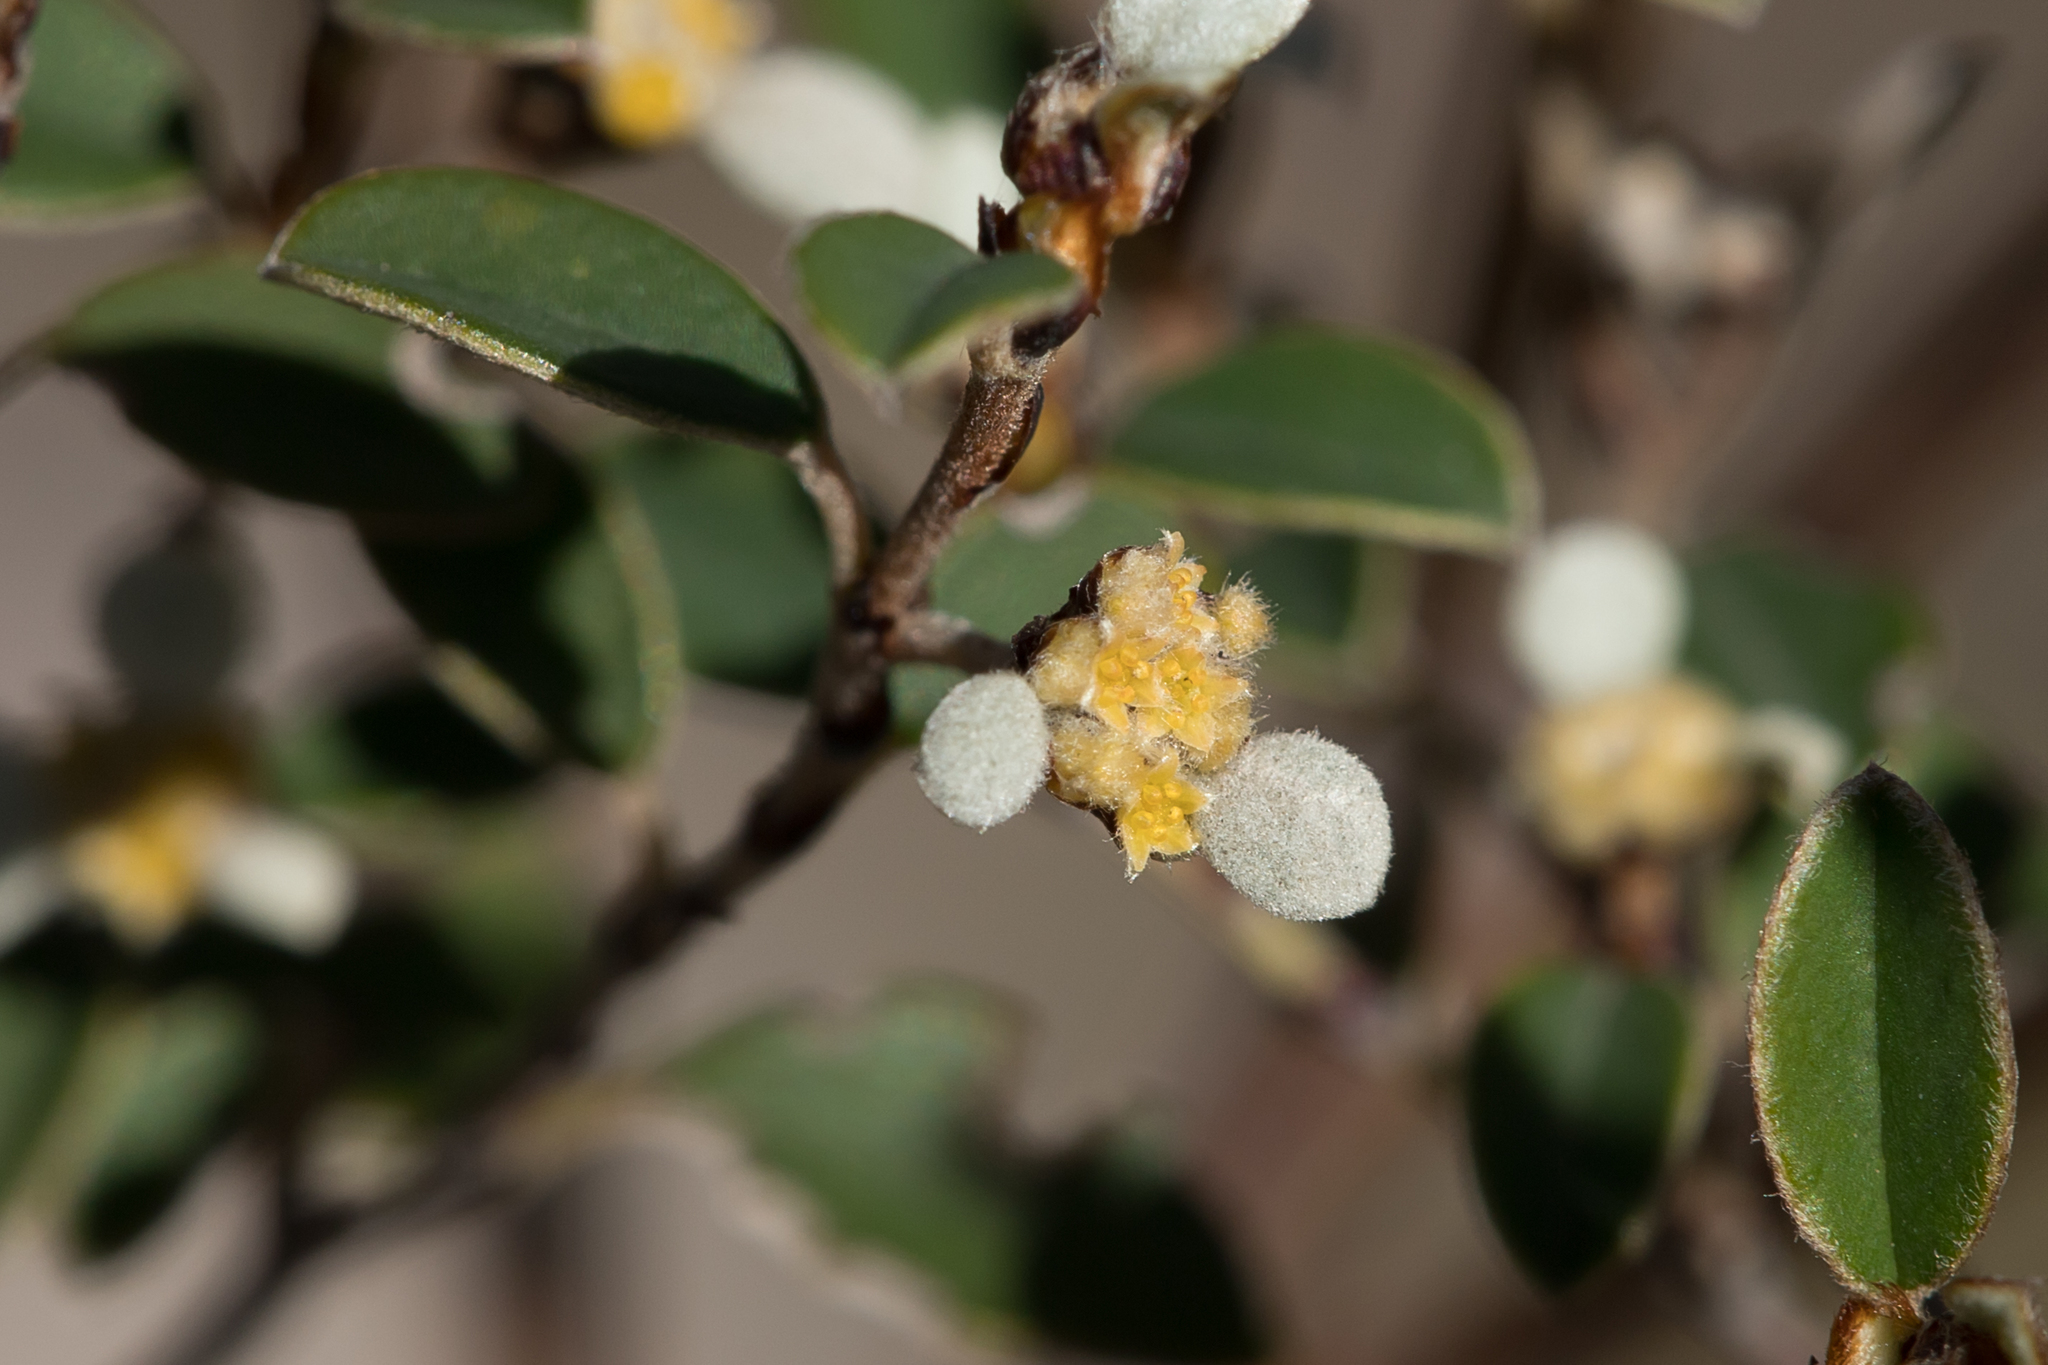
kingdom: Plantae
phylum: Tracheophyta
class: Magnoliopsida
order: Rosales
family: Rhamnaceae
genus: Spyridium
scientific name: Spyridium thymifolium
